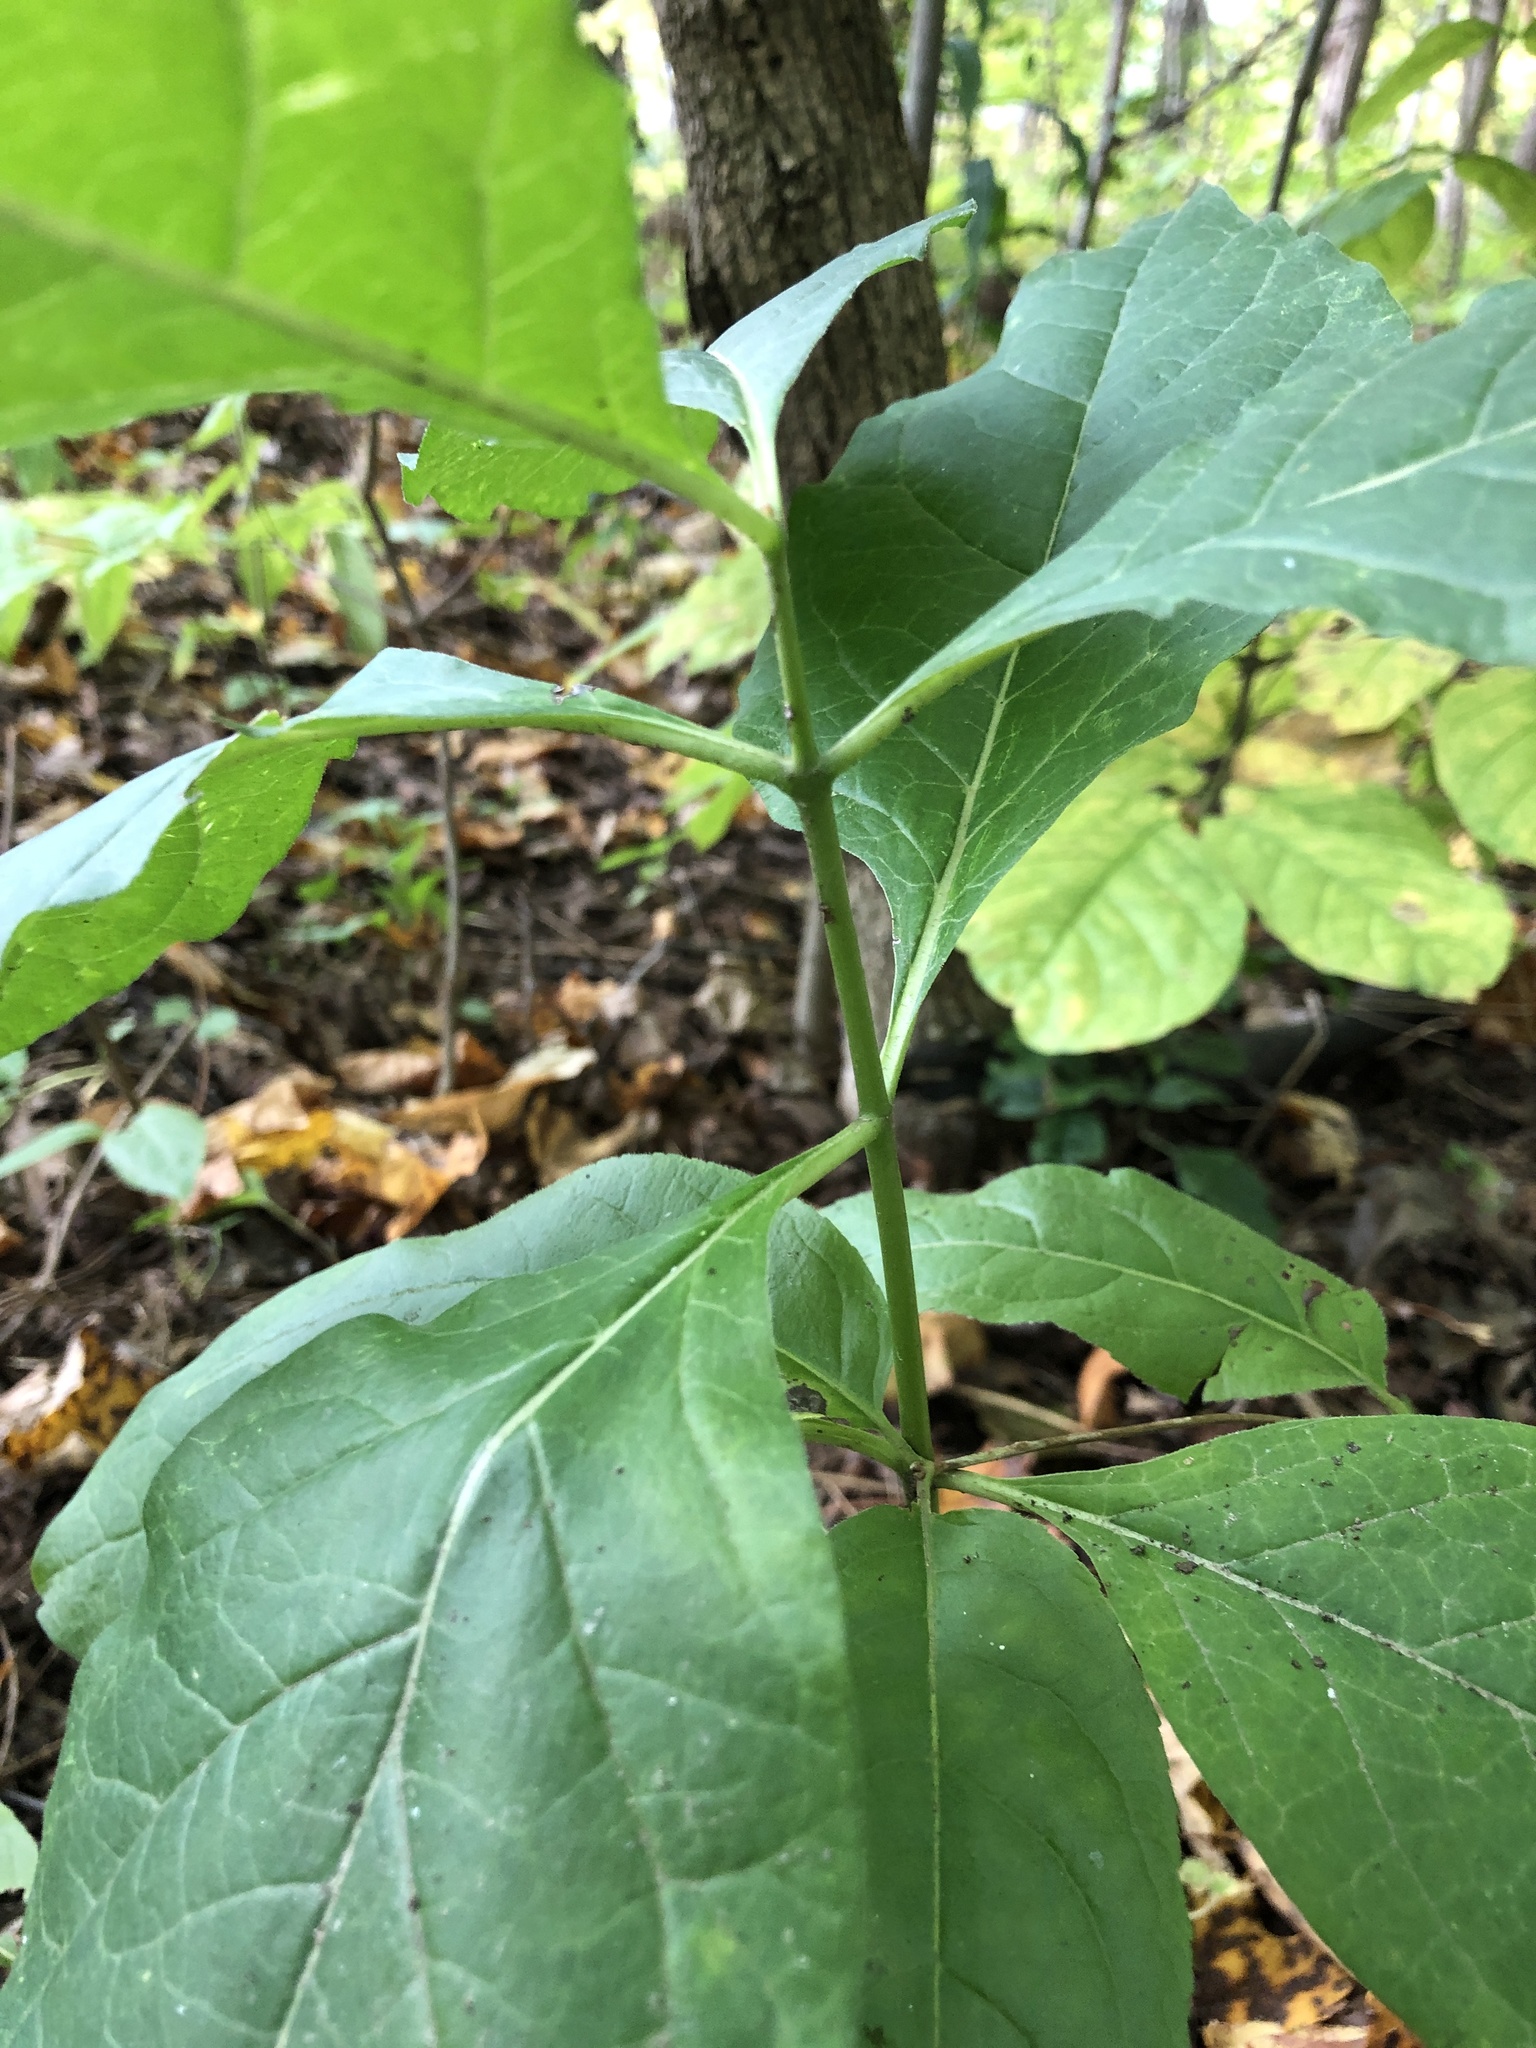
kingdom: Plantae
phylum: Tracheophyta
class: Magnoliopsida
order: Gentianales
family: Apocynaceae
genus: Asclepias
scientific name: Asclepias exaltata
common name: Poke milkweed
